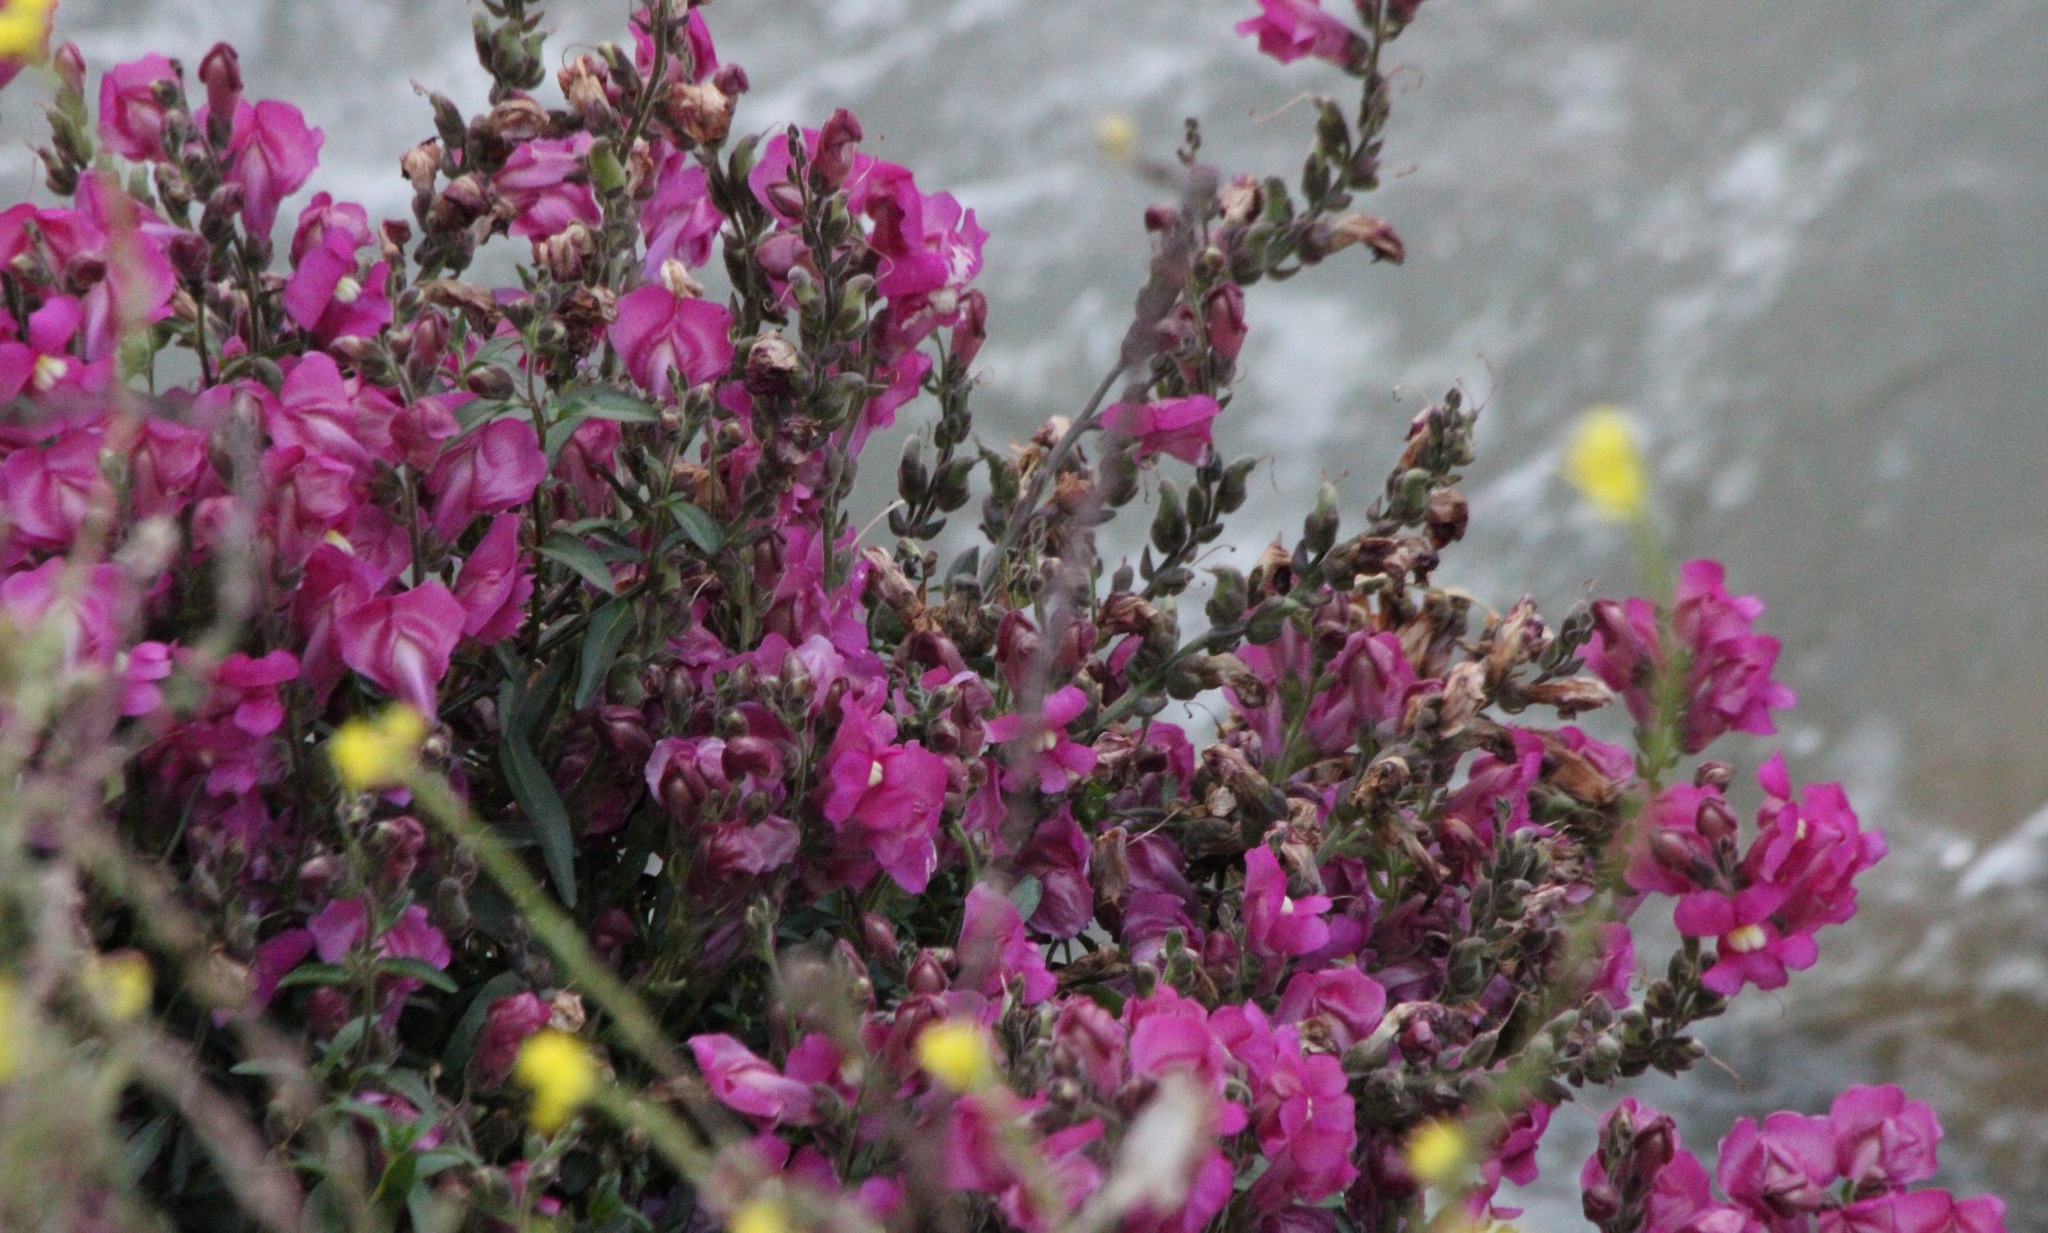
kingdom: Plantae
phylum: Tracheophyta
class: Magnoliopsida
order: Lamiales
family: Plantaginaceae
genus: Antirrhinum
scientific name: Antirrhinum majus
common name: Snapdragon
